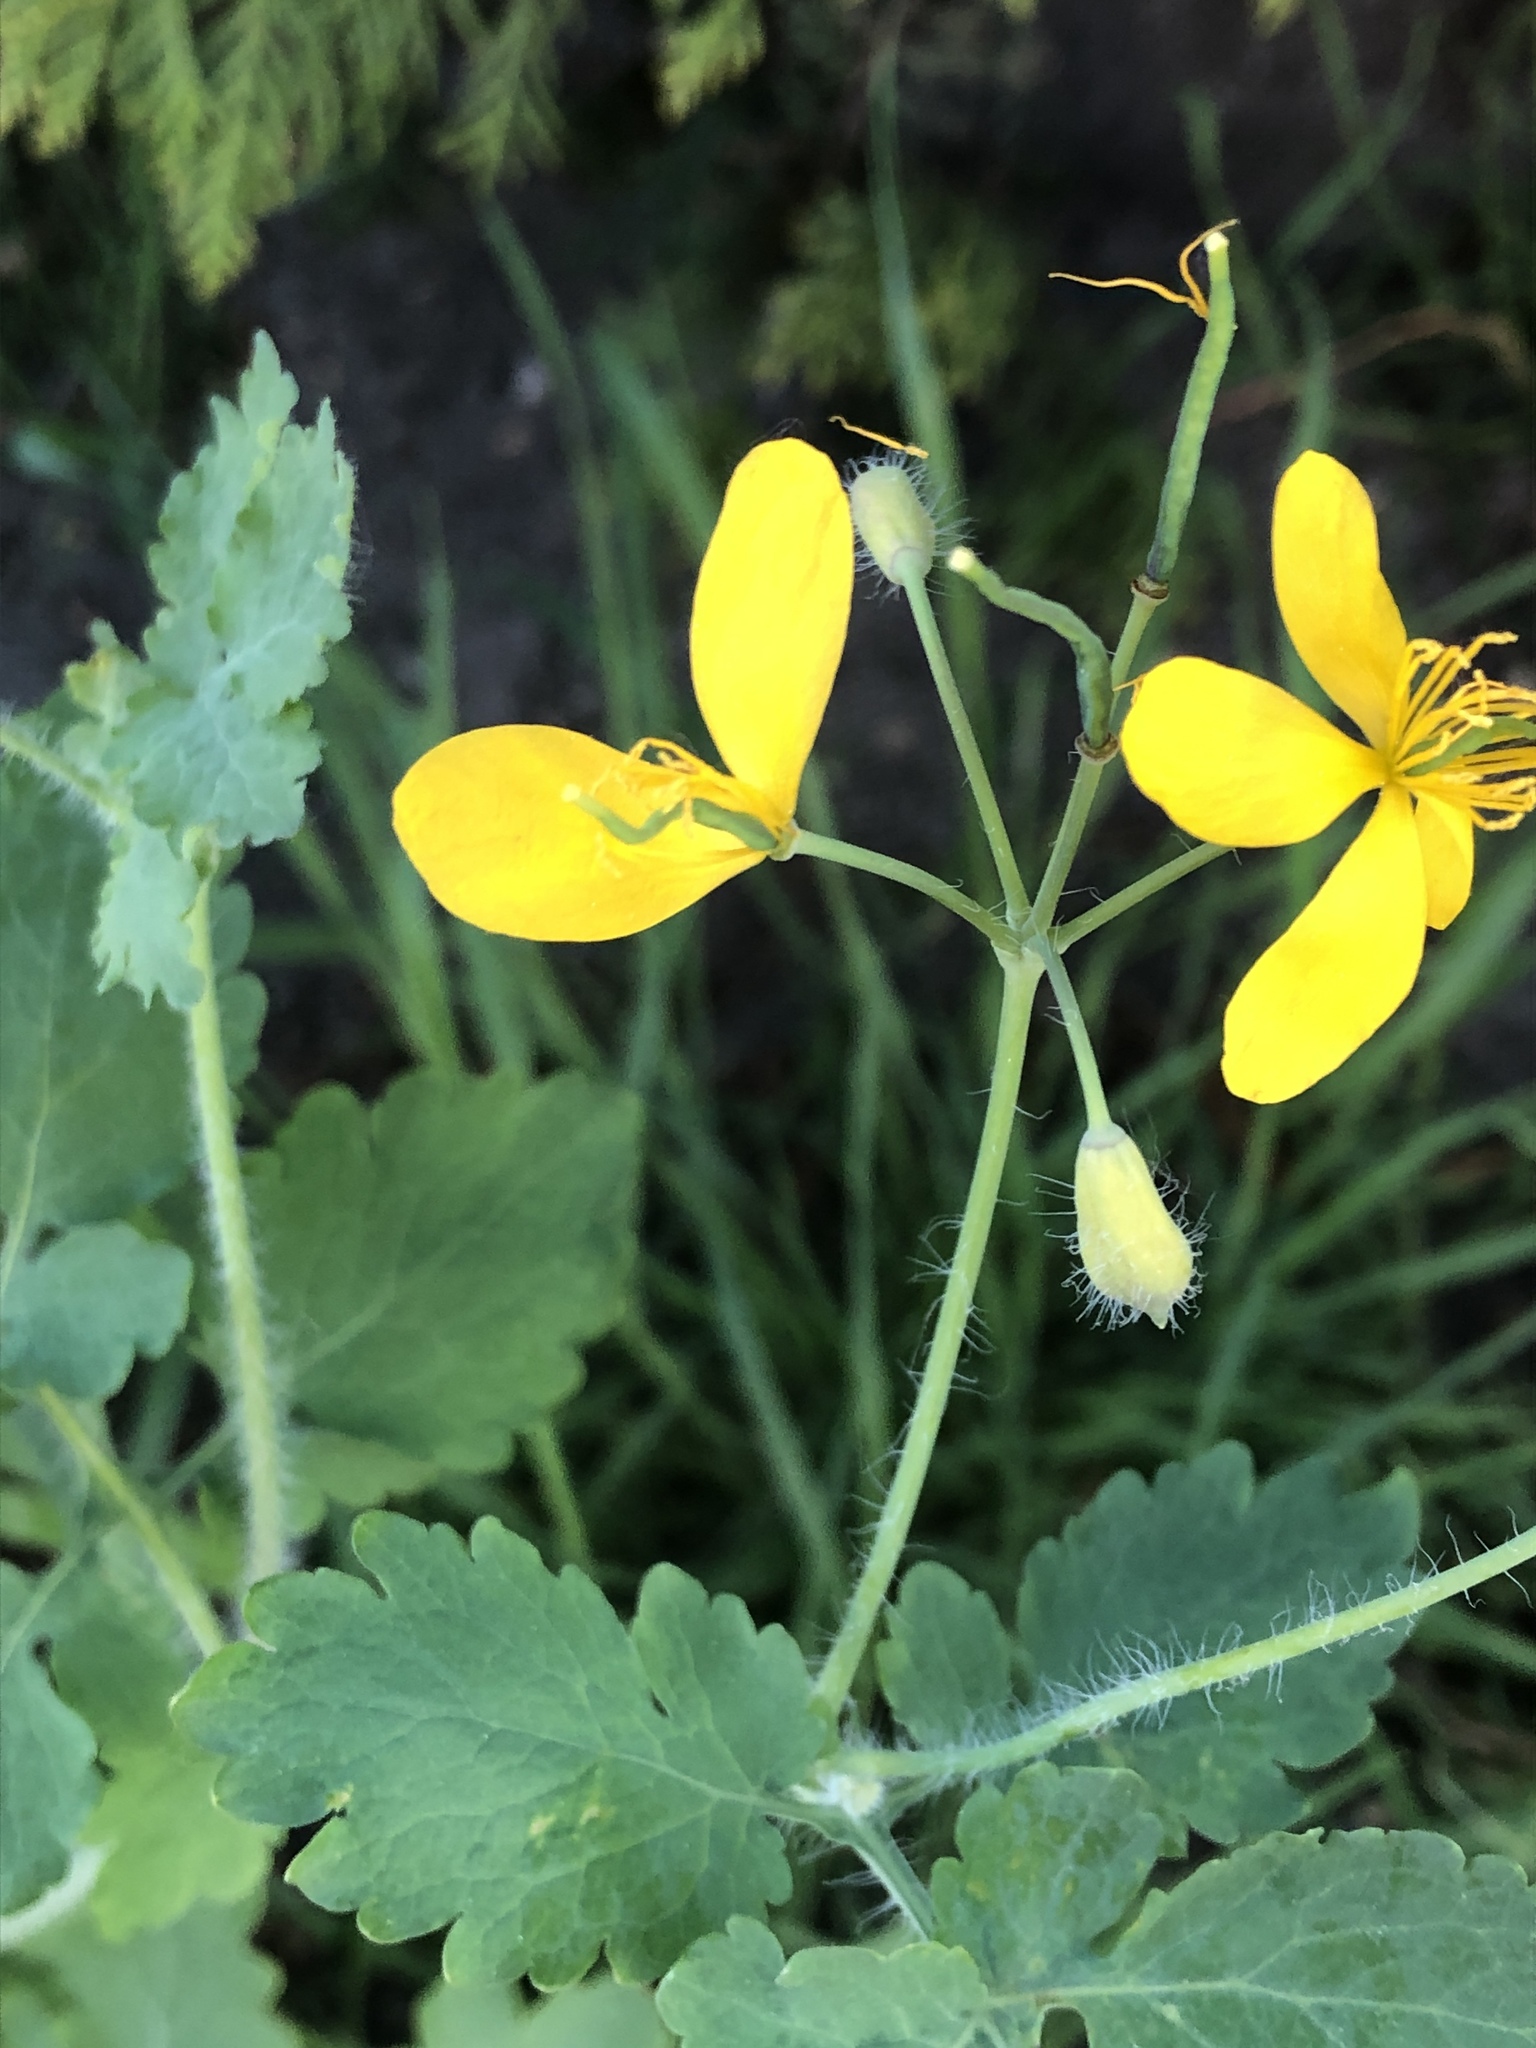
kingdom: Plantae
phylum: Tracheophyta
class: Magnoliopsida
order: Ranunculales
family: Papaveraceae
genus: Chelidonium
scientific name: Chelidonium majus
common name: Greater celandine
